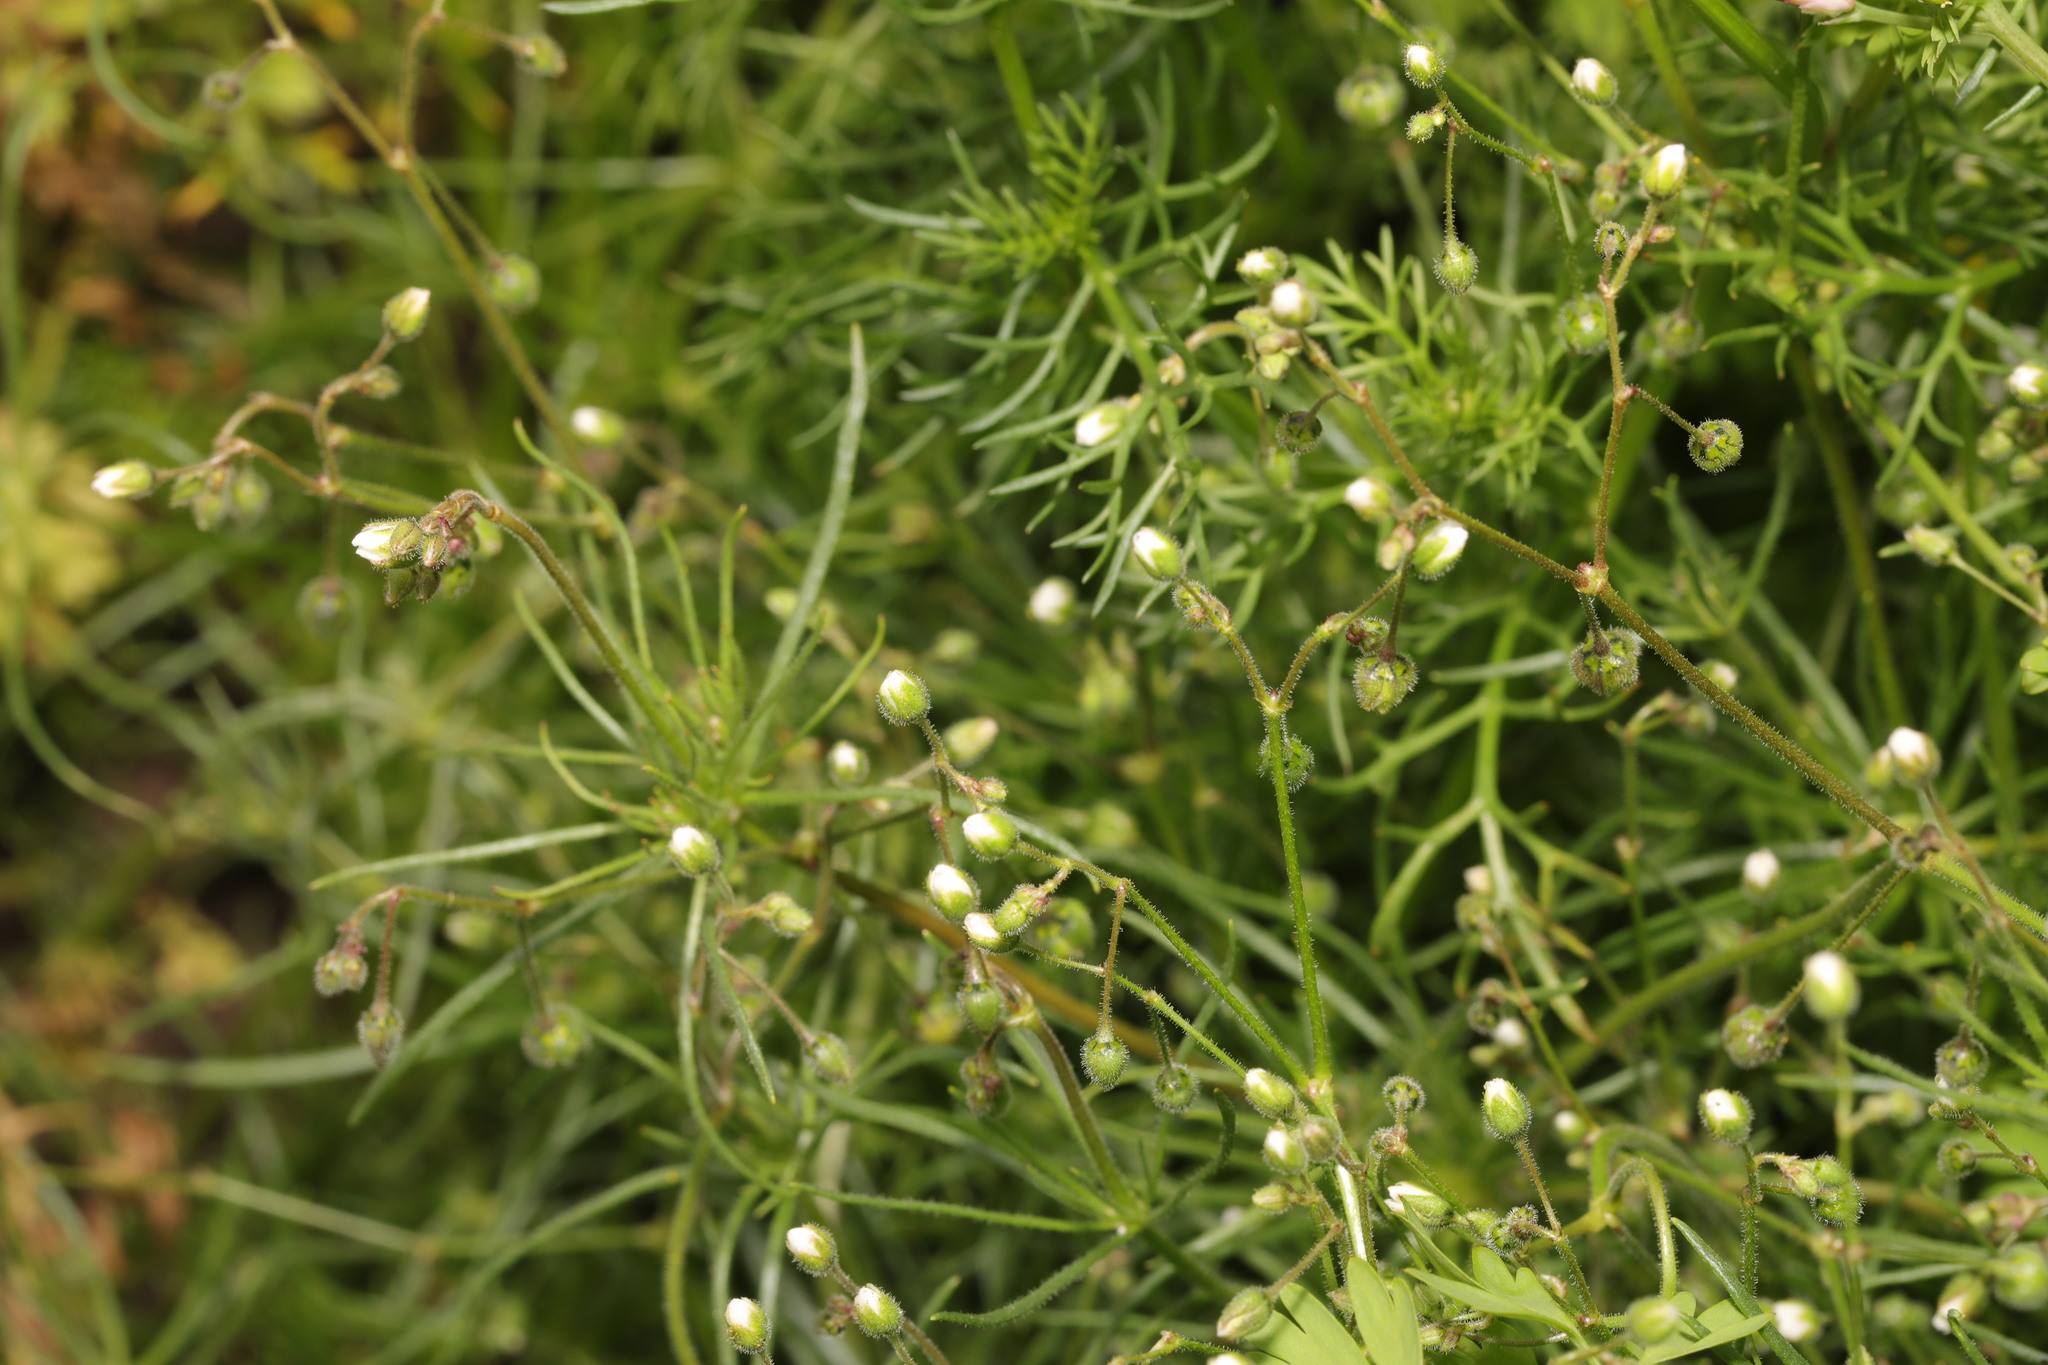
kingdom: Plantae
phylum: Tracheophyta
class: Magnoliopsida
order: Caryophyllales
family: Caryophyllaceae
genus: Spergula
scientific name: Spergula arvensis
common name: Corn spurrey
